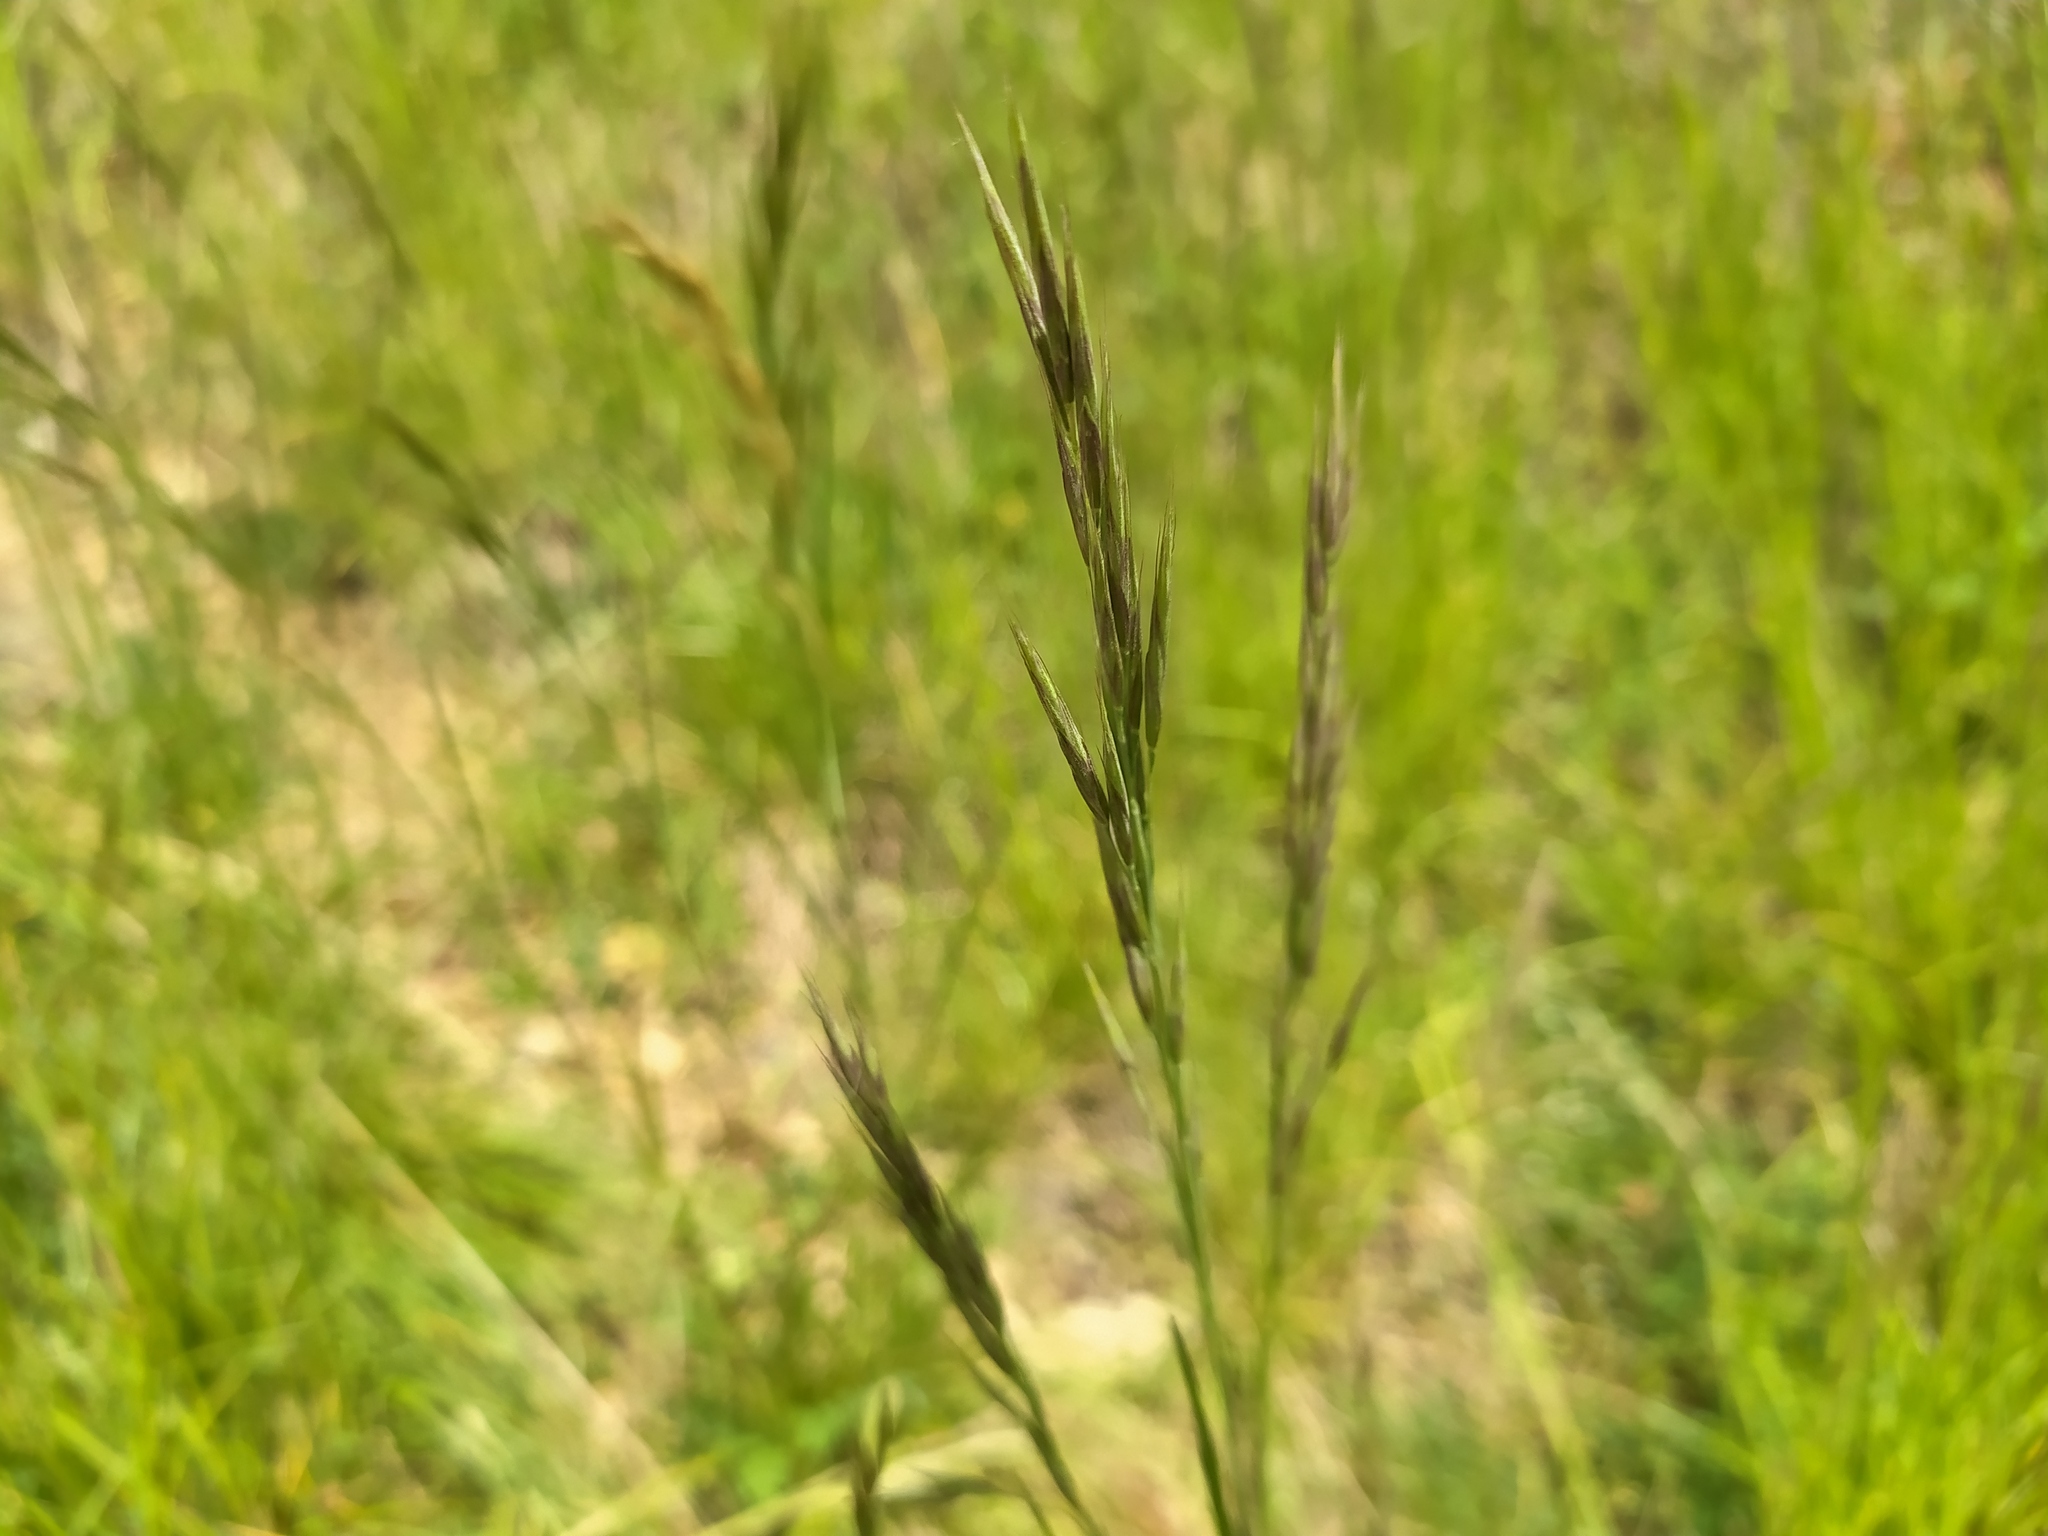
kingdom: Plantae
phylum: Tracheophyta
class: Liliopsida
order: Poales
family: Poaceae
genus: Bromus
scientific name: Bromus erectus
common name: Erect brome
